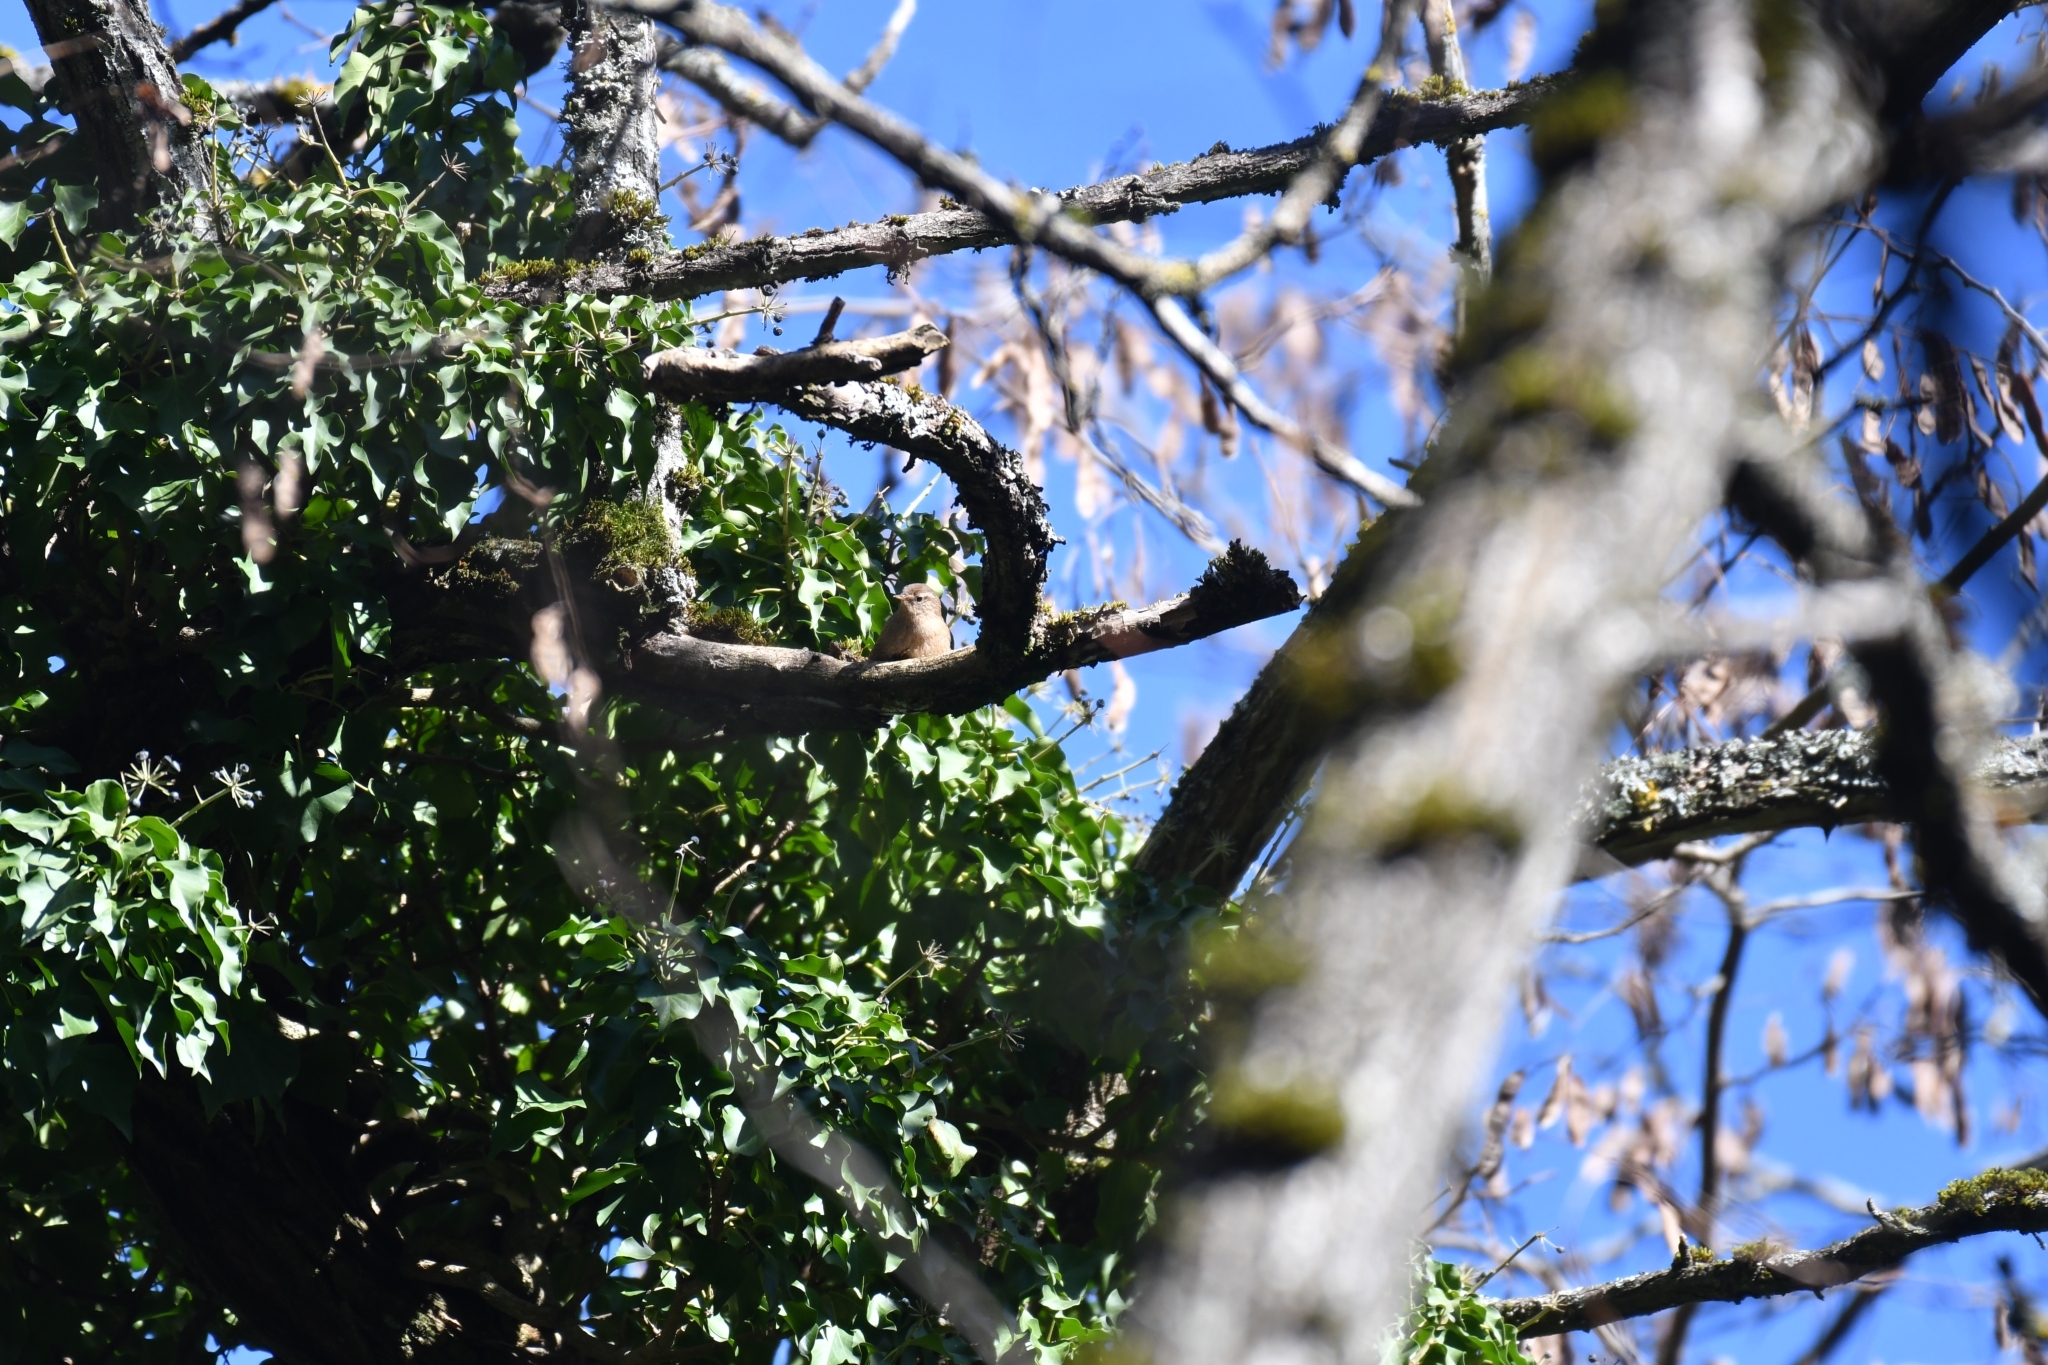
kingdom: Animalia
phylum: Chordata
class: Aves
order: Passeriformes
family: Troglodytidae
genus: Troglodytes
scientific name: Troglodytes troglodytes
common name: Eurasian wren
